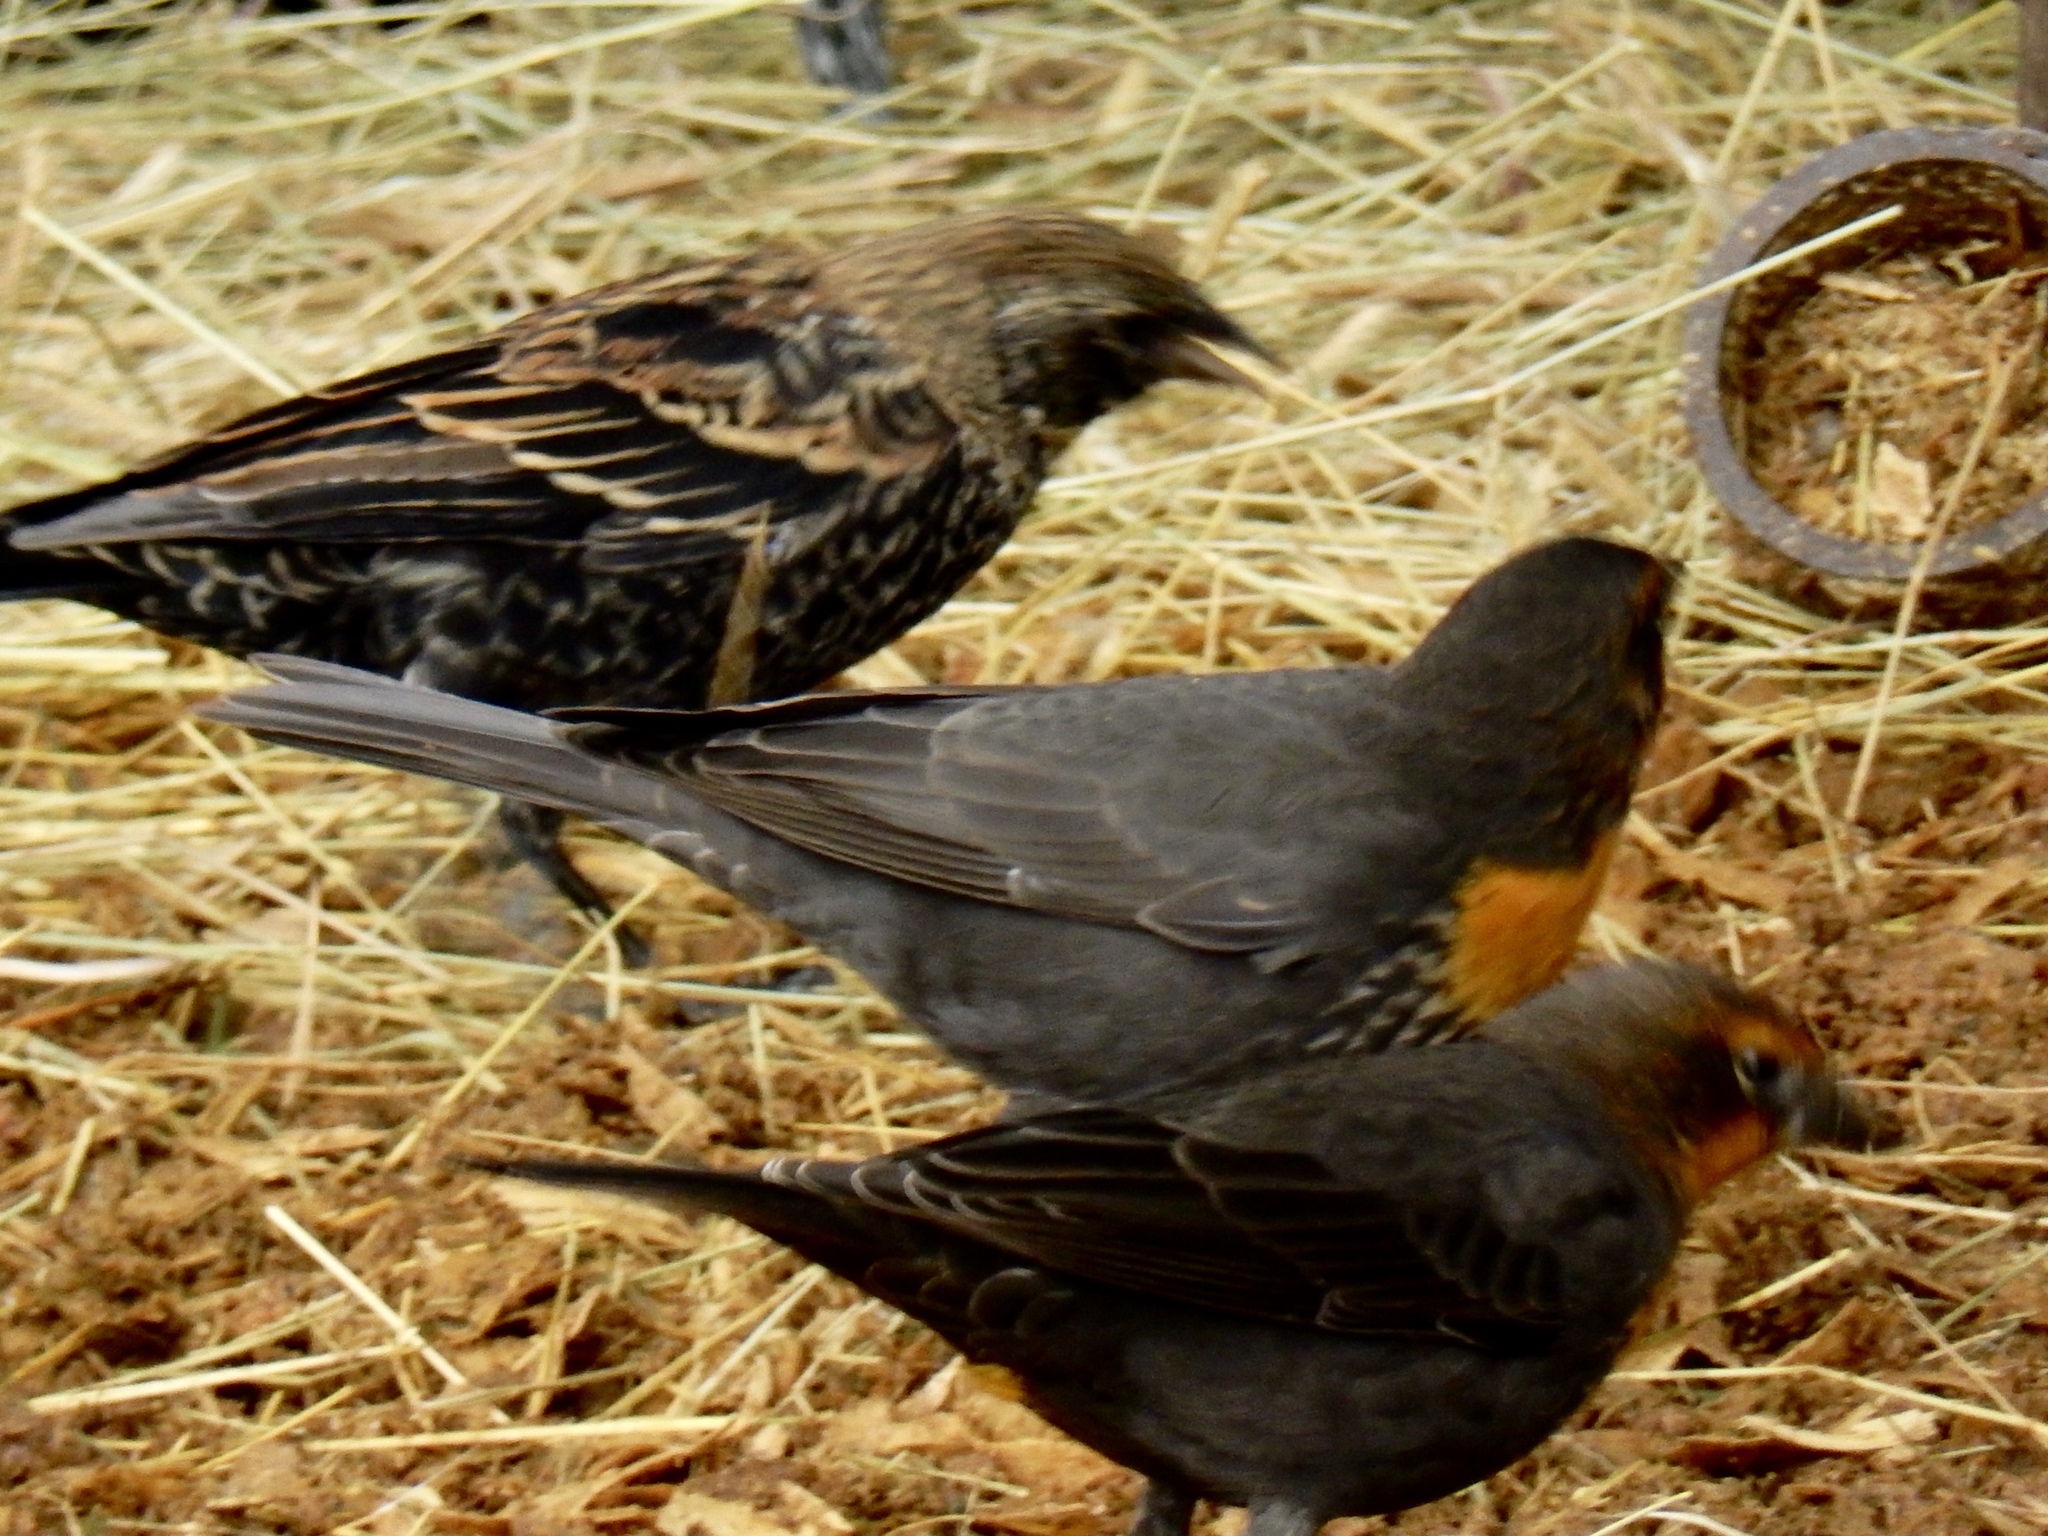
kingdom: Animalia
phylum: Chordata
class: Aves
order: Passeriformes
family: Icteridae
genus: Xanthocephalus
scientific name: Xanthocephalus xanthocephalus
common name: Yellow-headed blackbird
